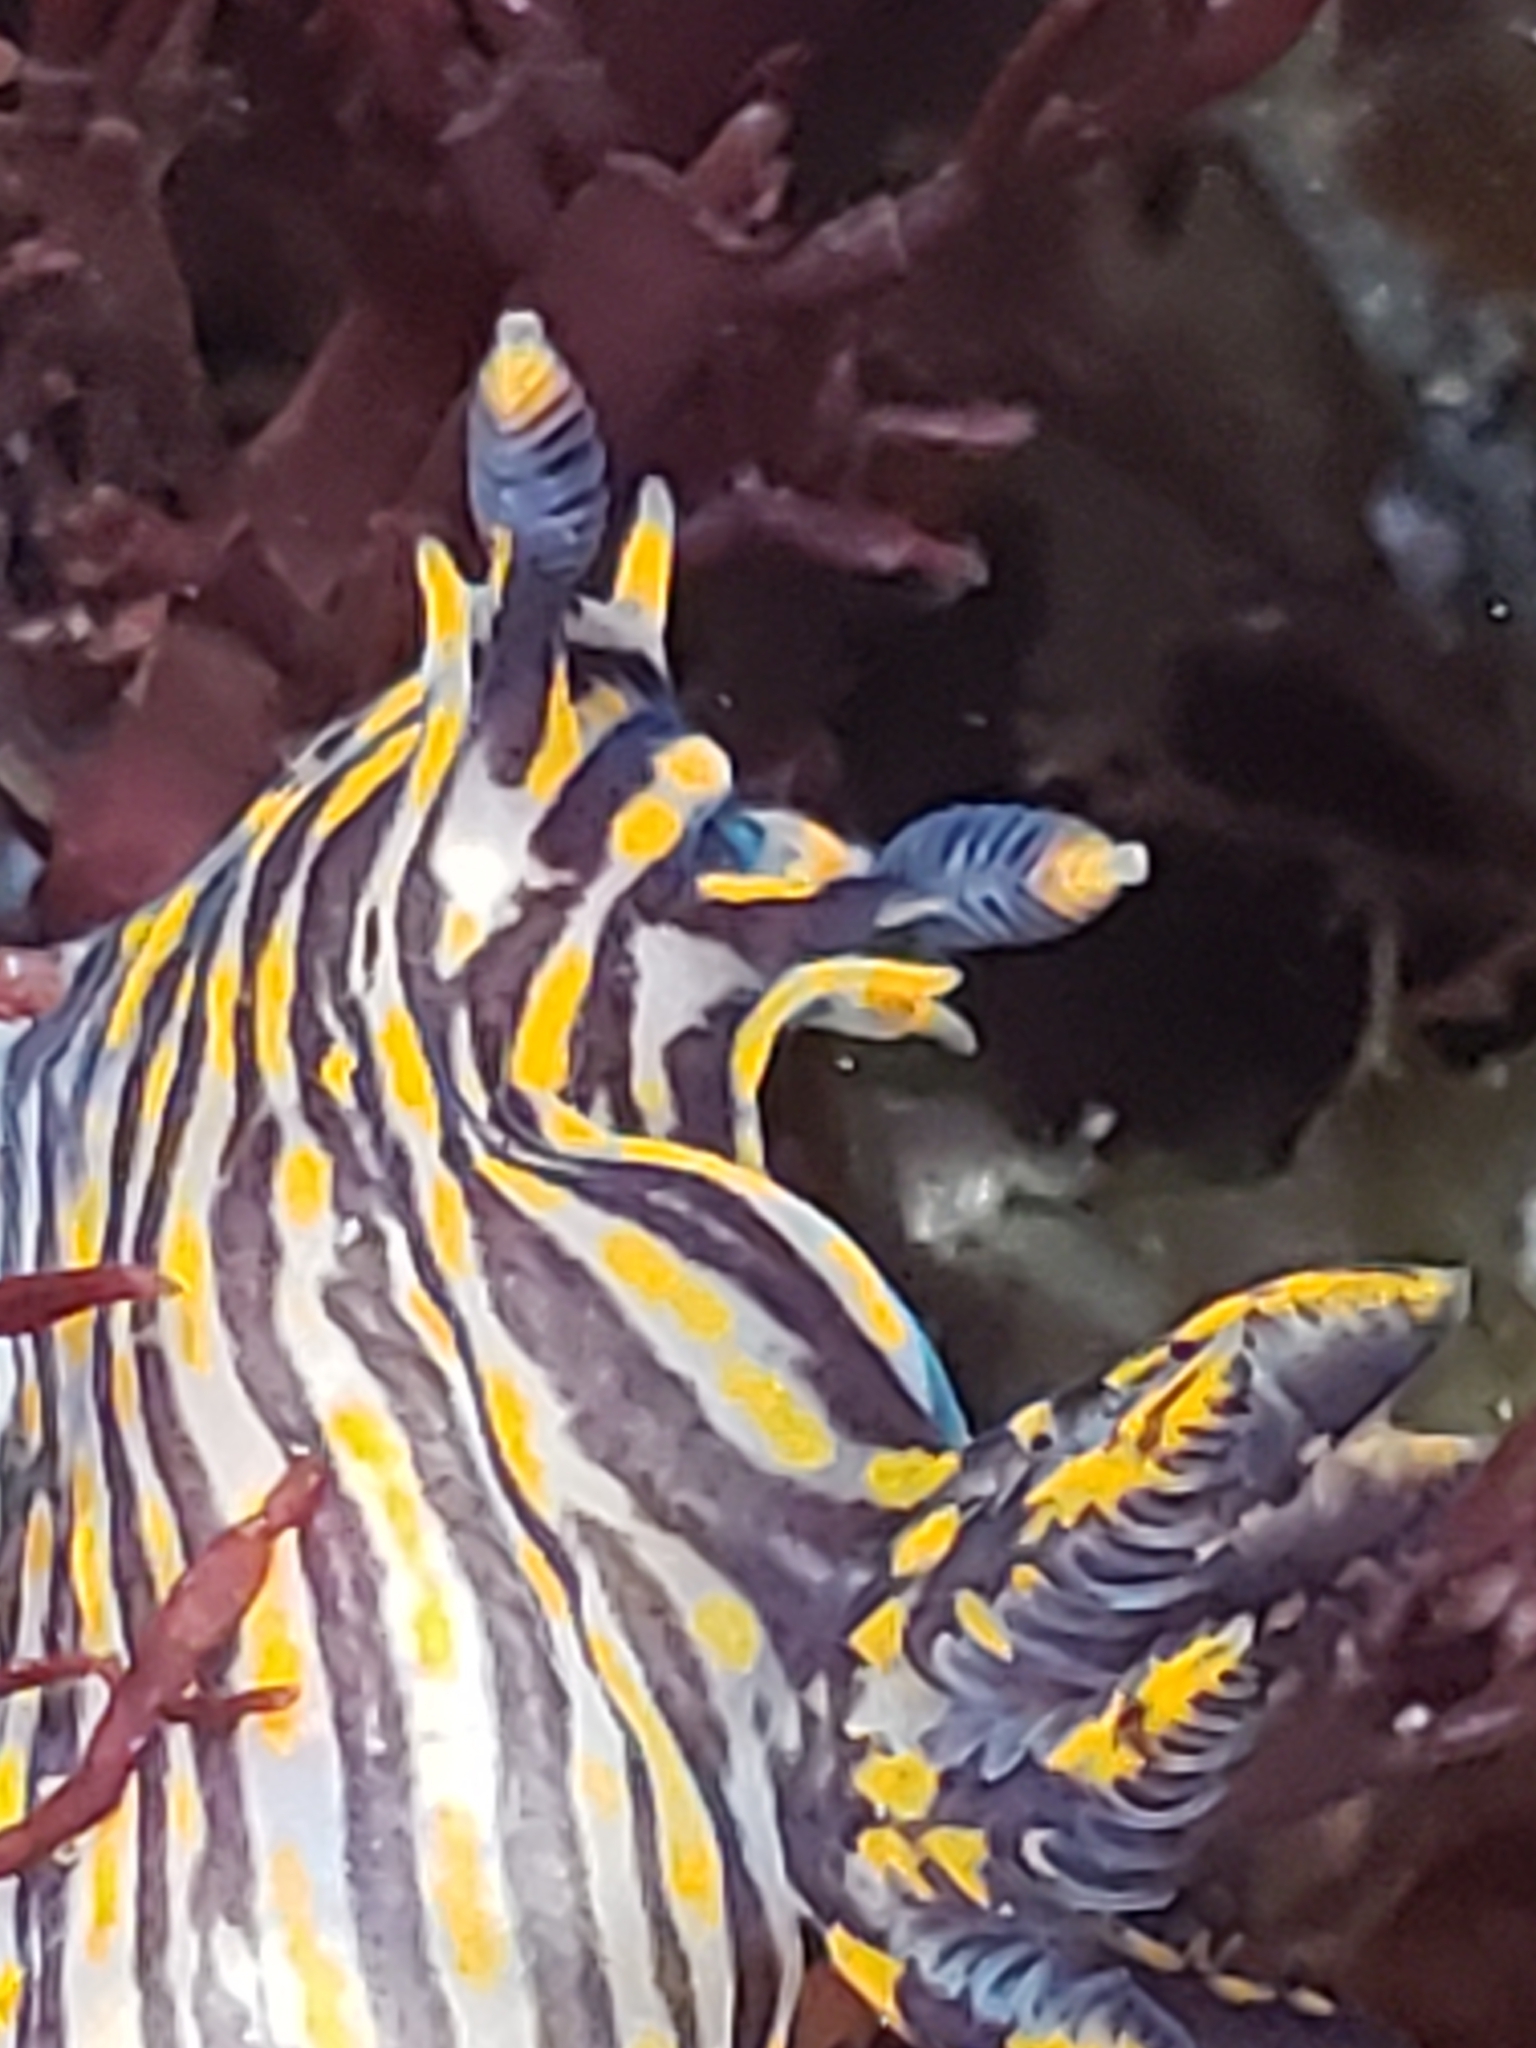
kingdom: Animalia
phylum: Mollusca
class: Gastropoda
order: Nudibranchia
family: Polyceridae
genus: Polycera
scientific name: Polycera atra
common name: Orange-spike polycera
